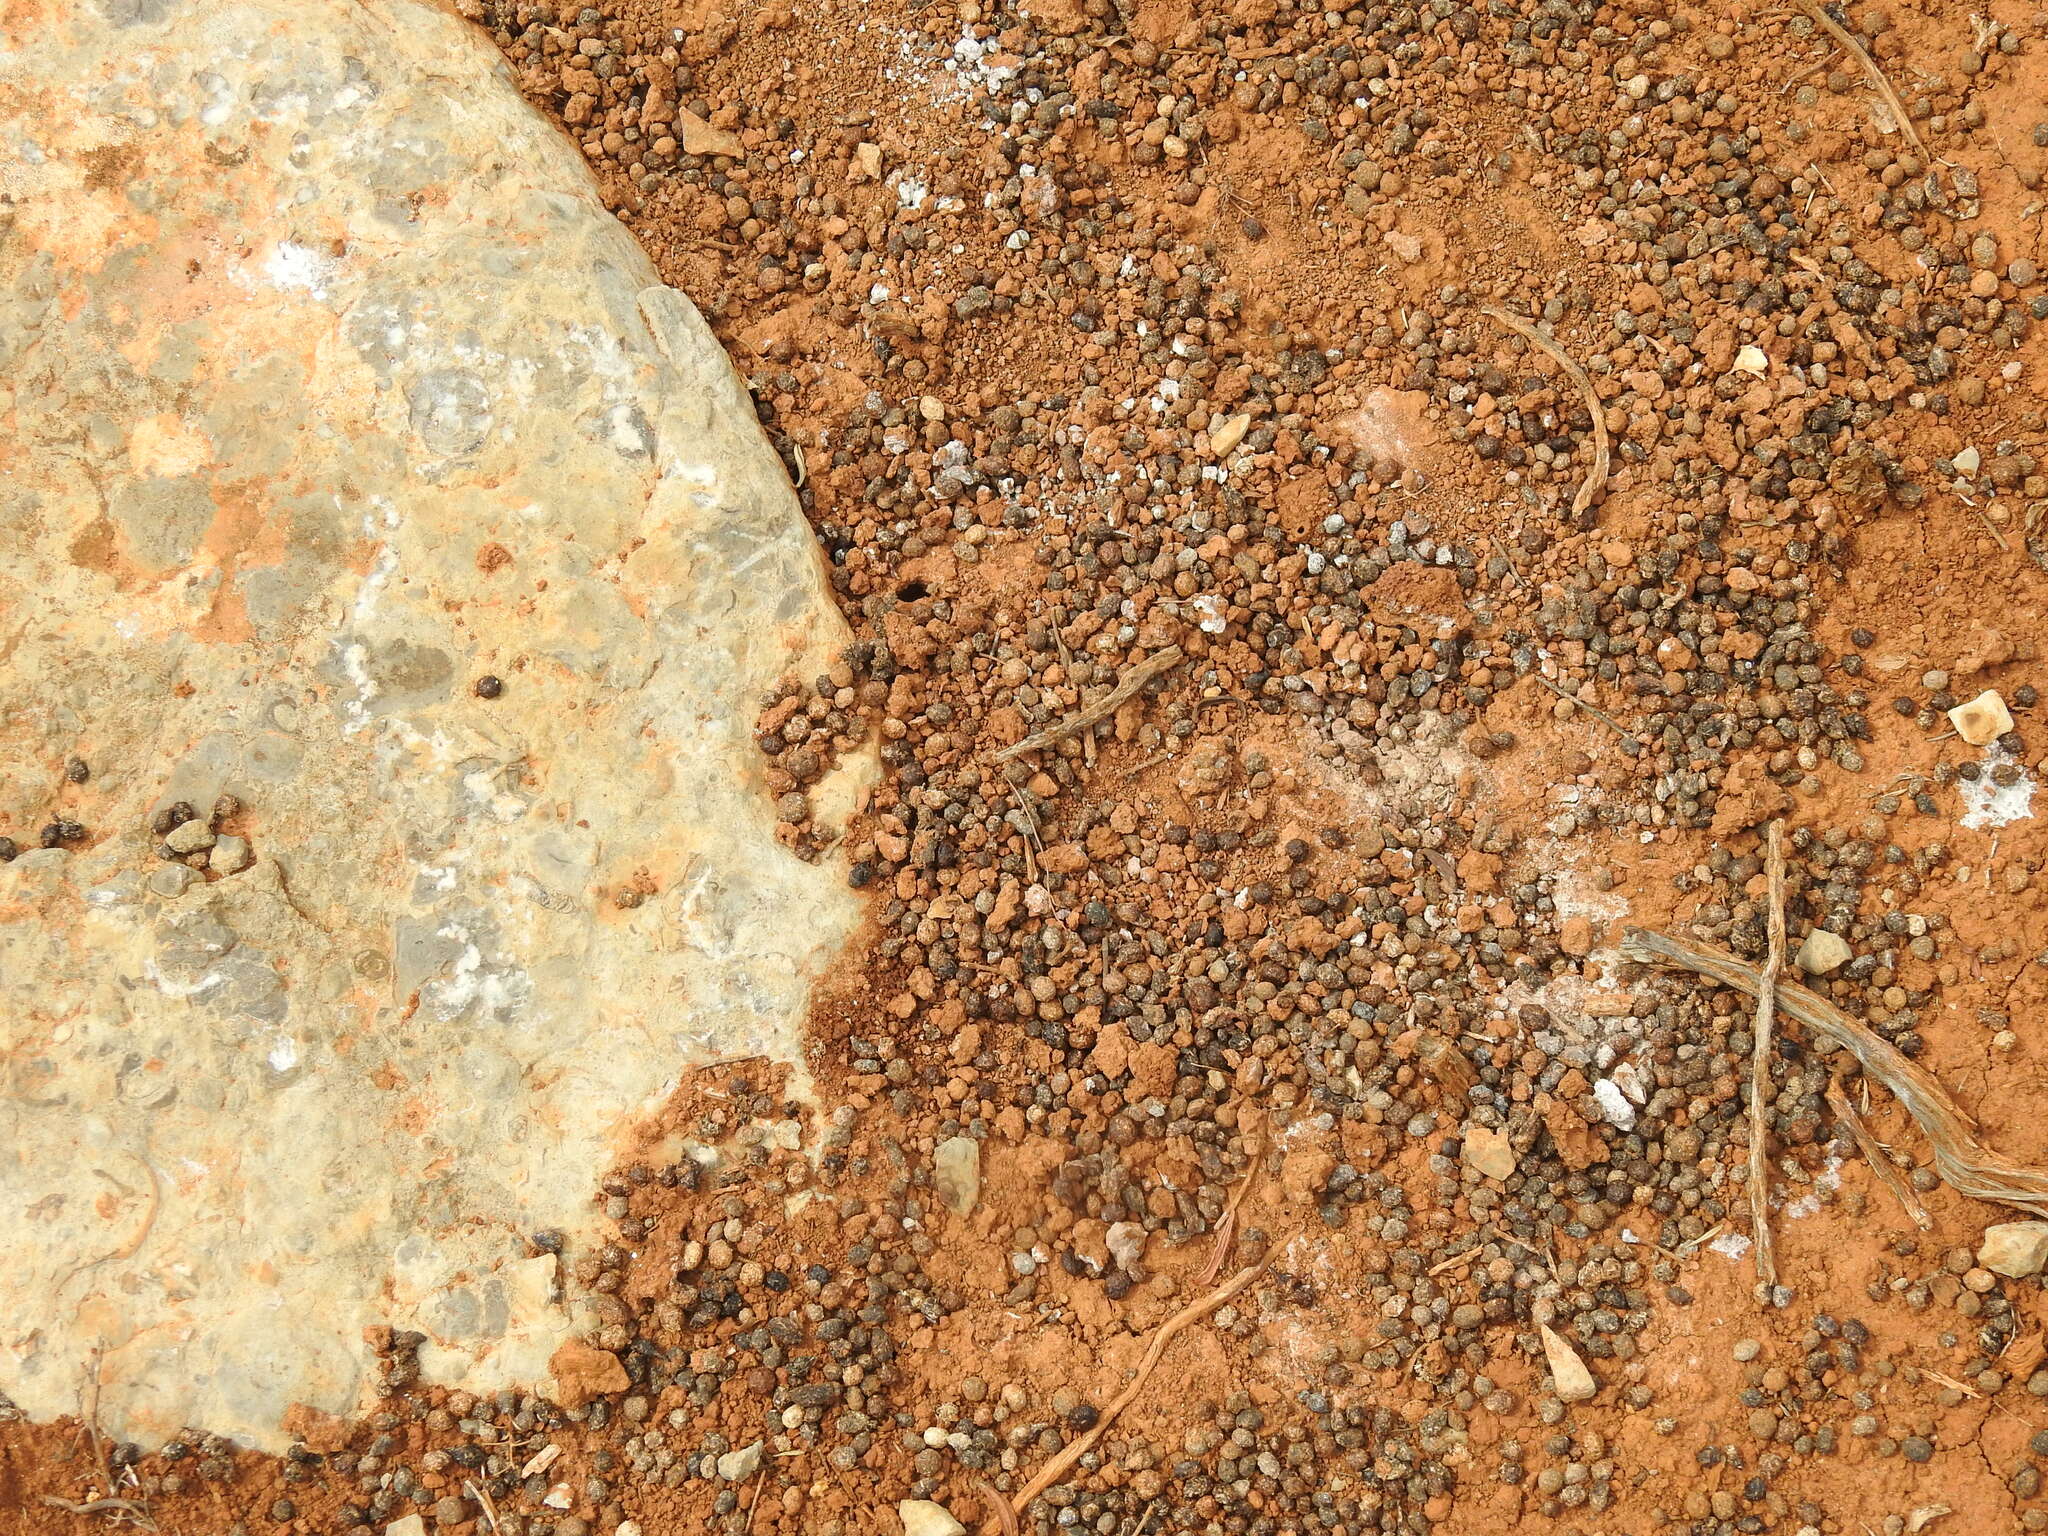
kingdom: Animalia
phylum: Chordata
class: Mammalia
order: Lagomorpha
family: Leporidae
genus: Oryctolagus
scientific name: Oryctolagus cuniculus
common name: European rabbit
